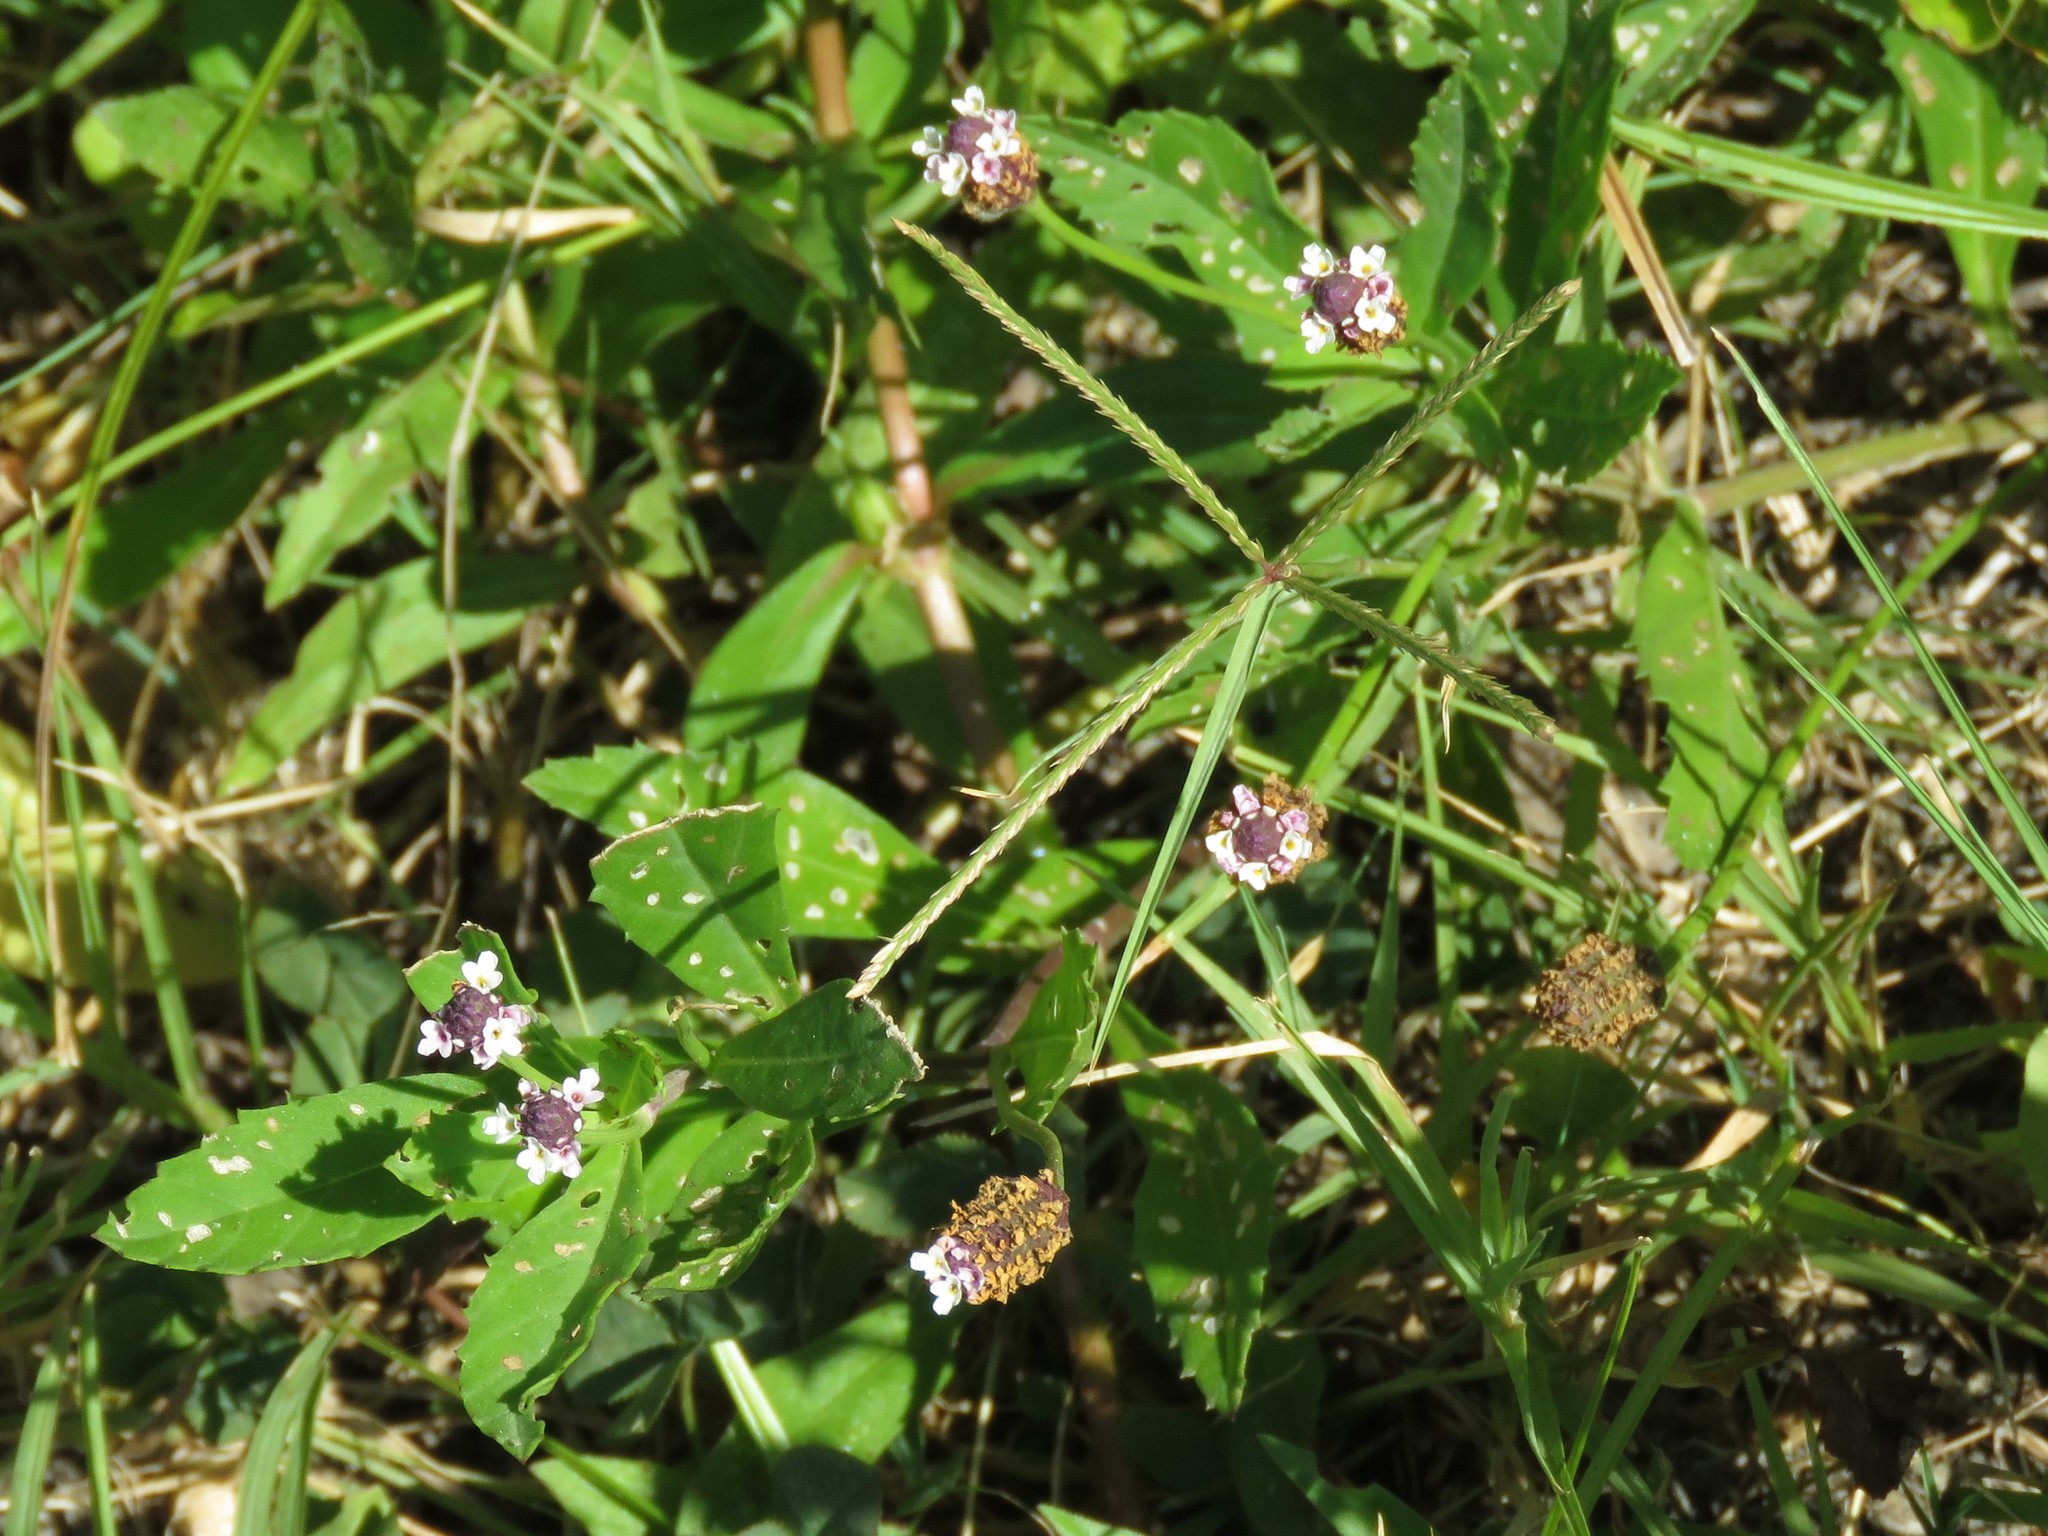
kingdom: Plantae
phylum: Tracheophyta
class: Magnoliopsida
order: Lamiales
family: Verbenaceae
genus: Phyla
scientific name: Phyla nodiflora
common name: Frogfruit
